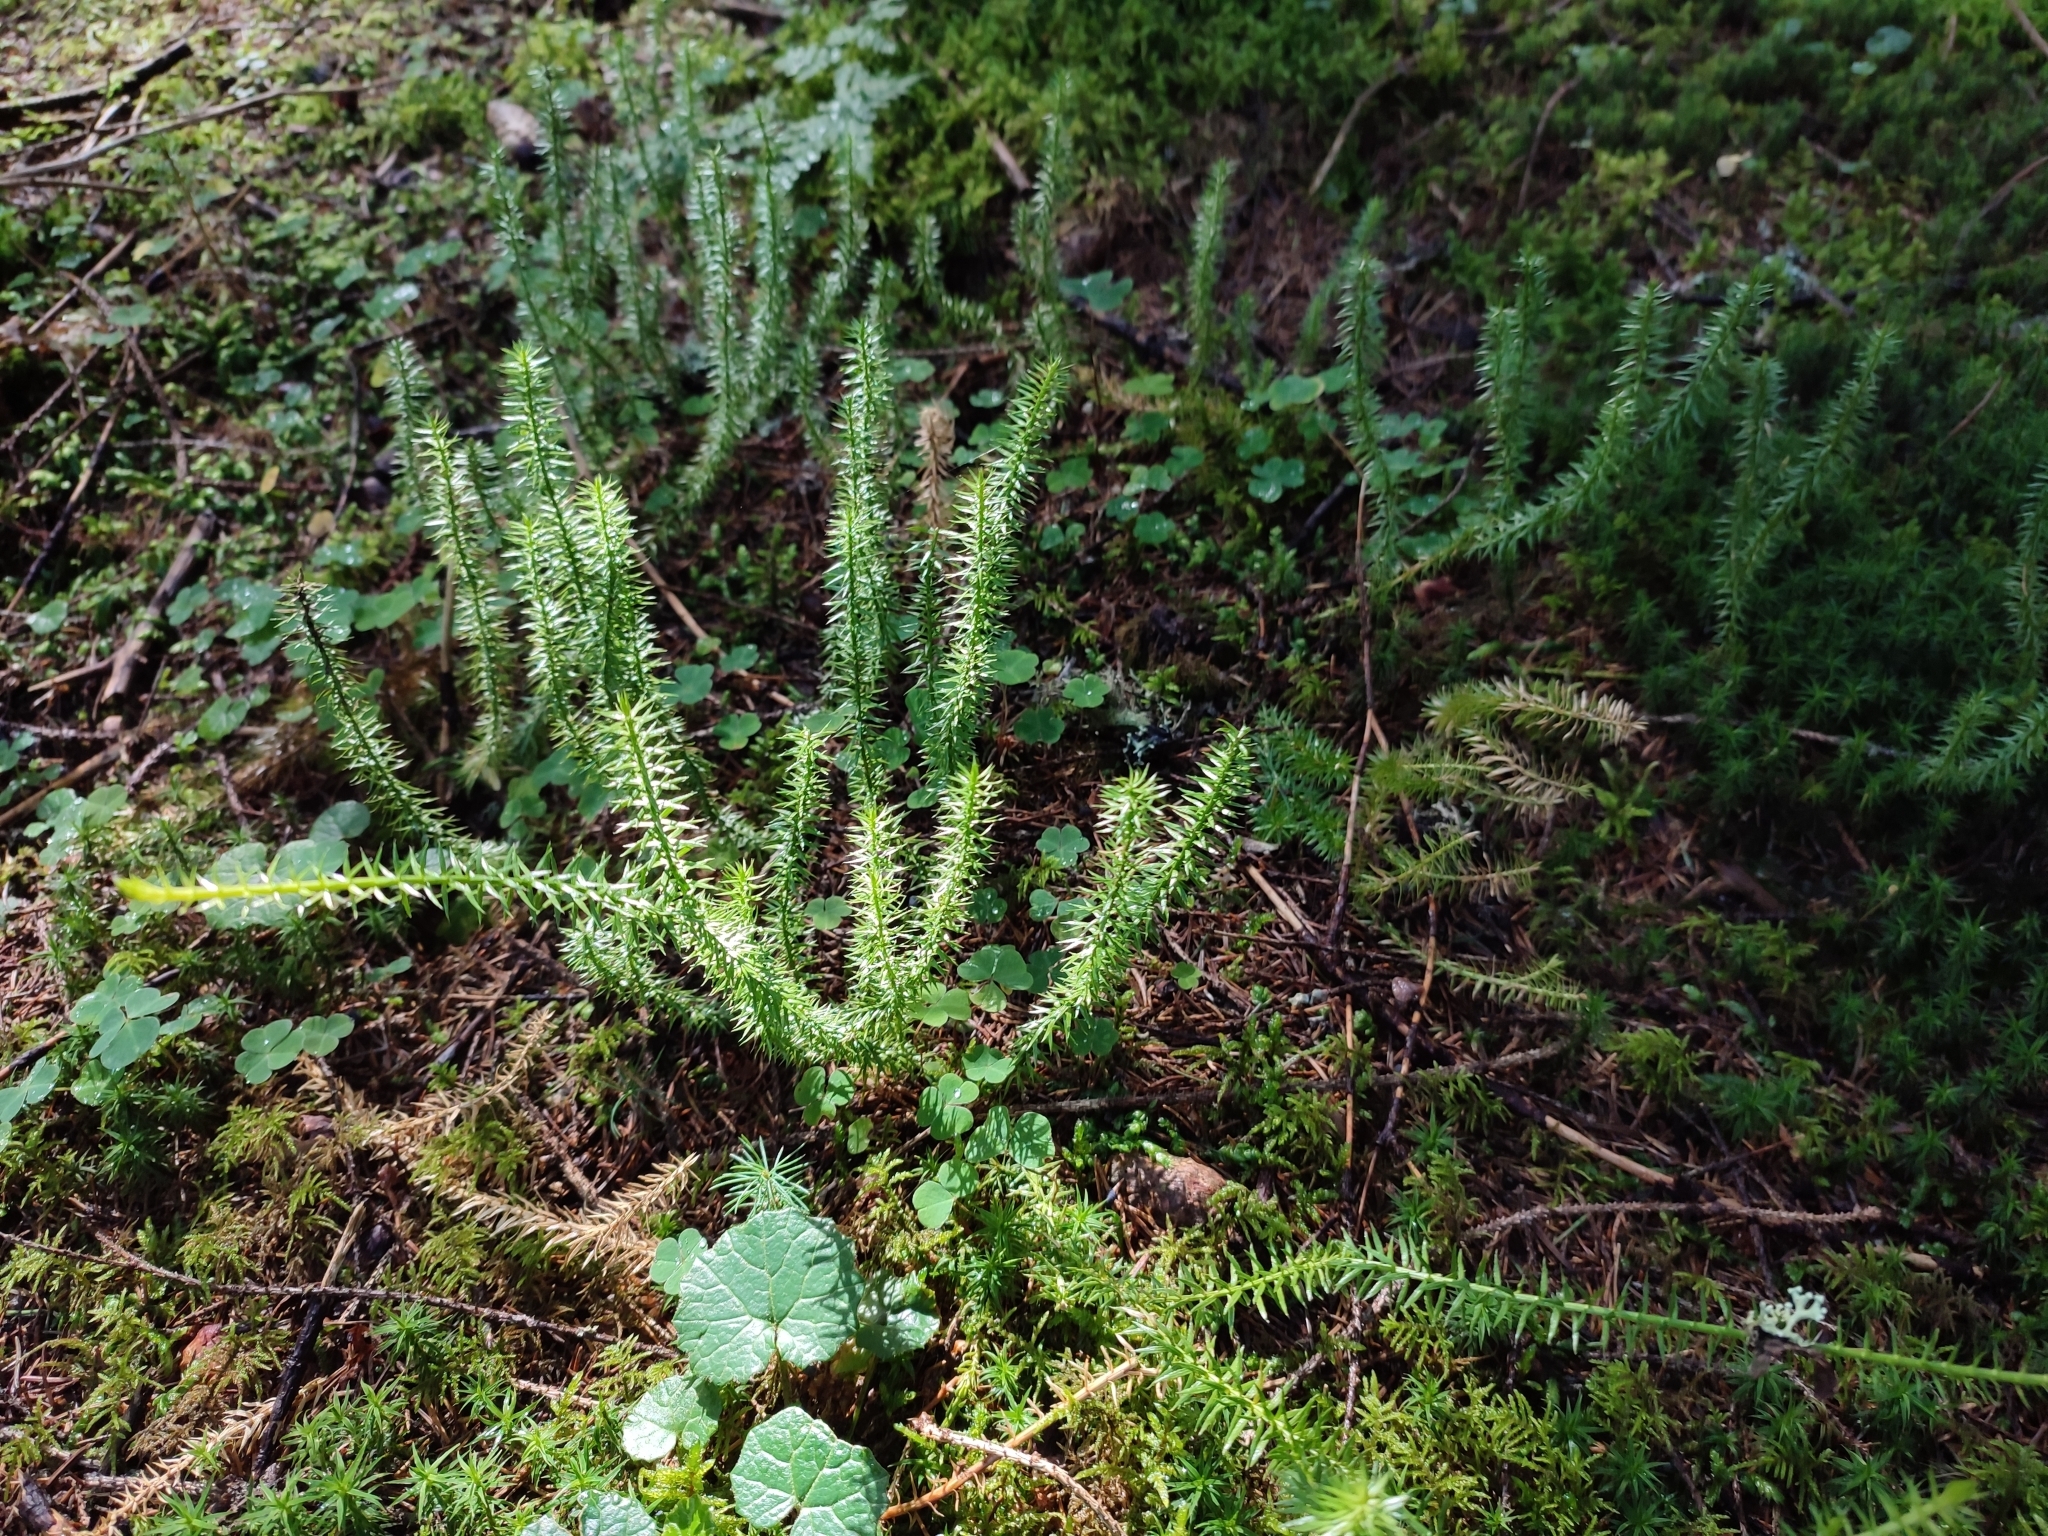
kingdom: Plantae
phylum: Tracheophyta
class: Lycopodiopsida
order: Lycopodiales
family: Lycopodiaceae
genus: Spinulum
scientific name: Spinulum annotinum
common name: Interrupted club-moss
